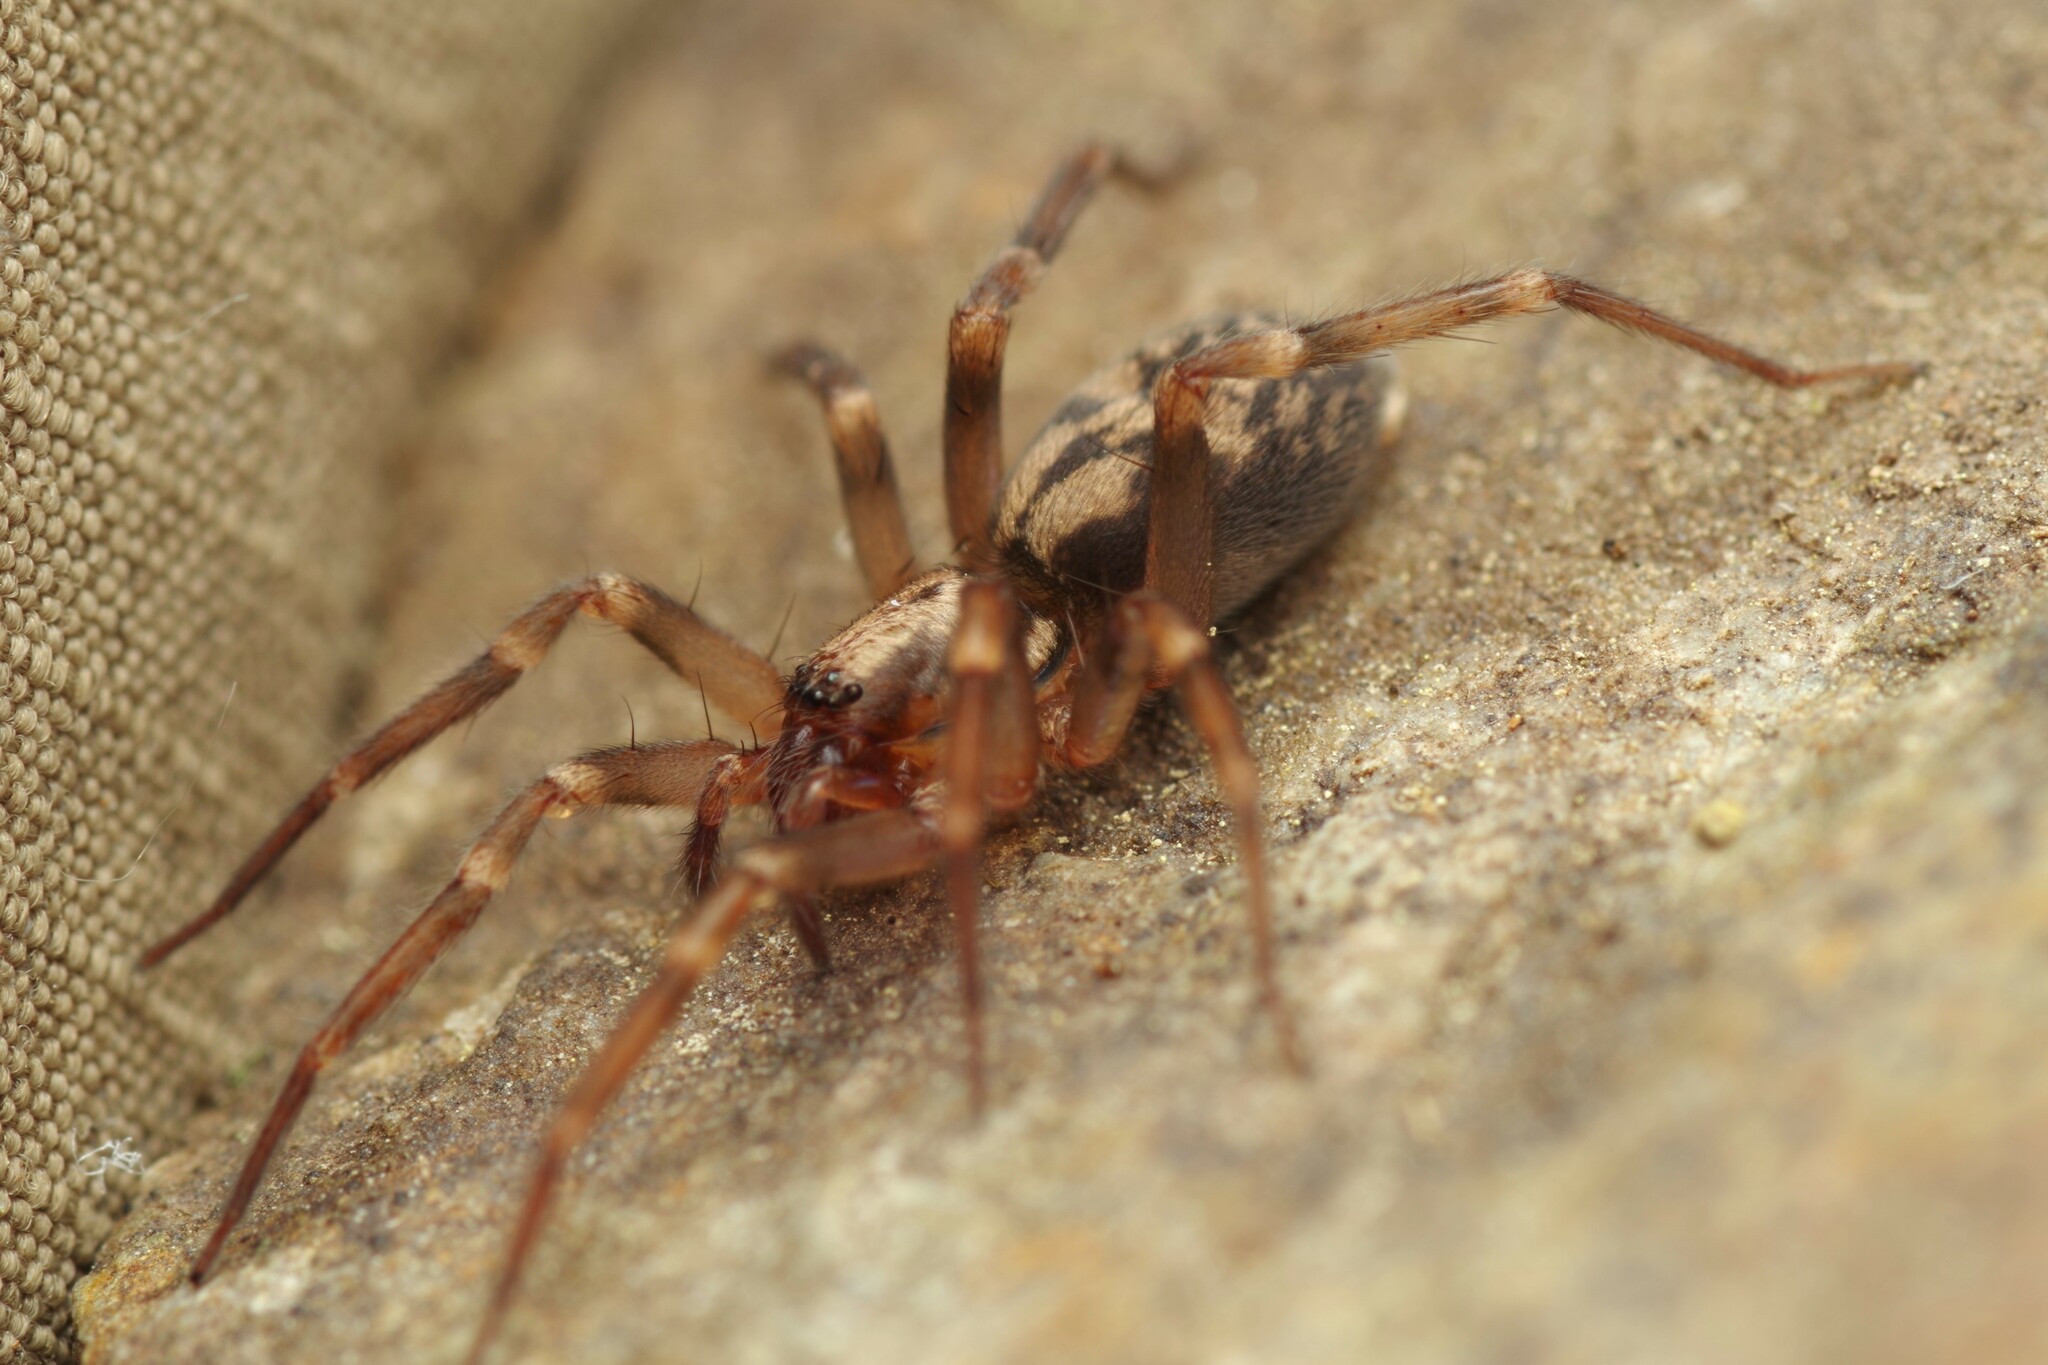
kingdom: Animalia
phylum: Arthropoda
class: Arachnida
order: Araneae
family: Liocranidae
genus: Liocranum
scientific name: Liocranum rupicola
